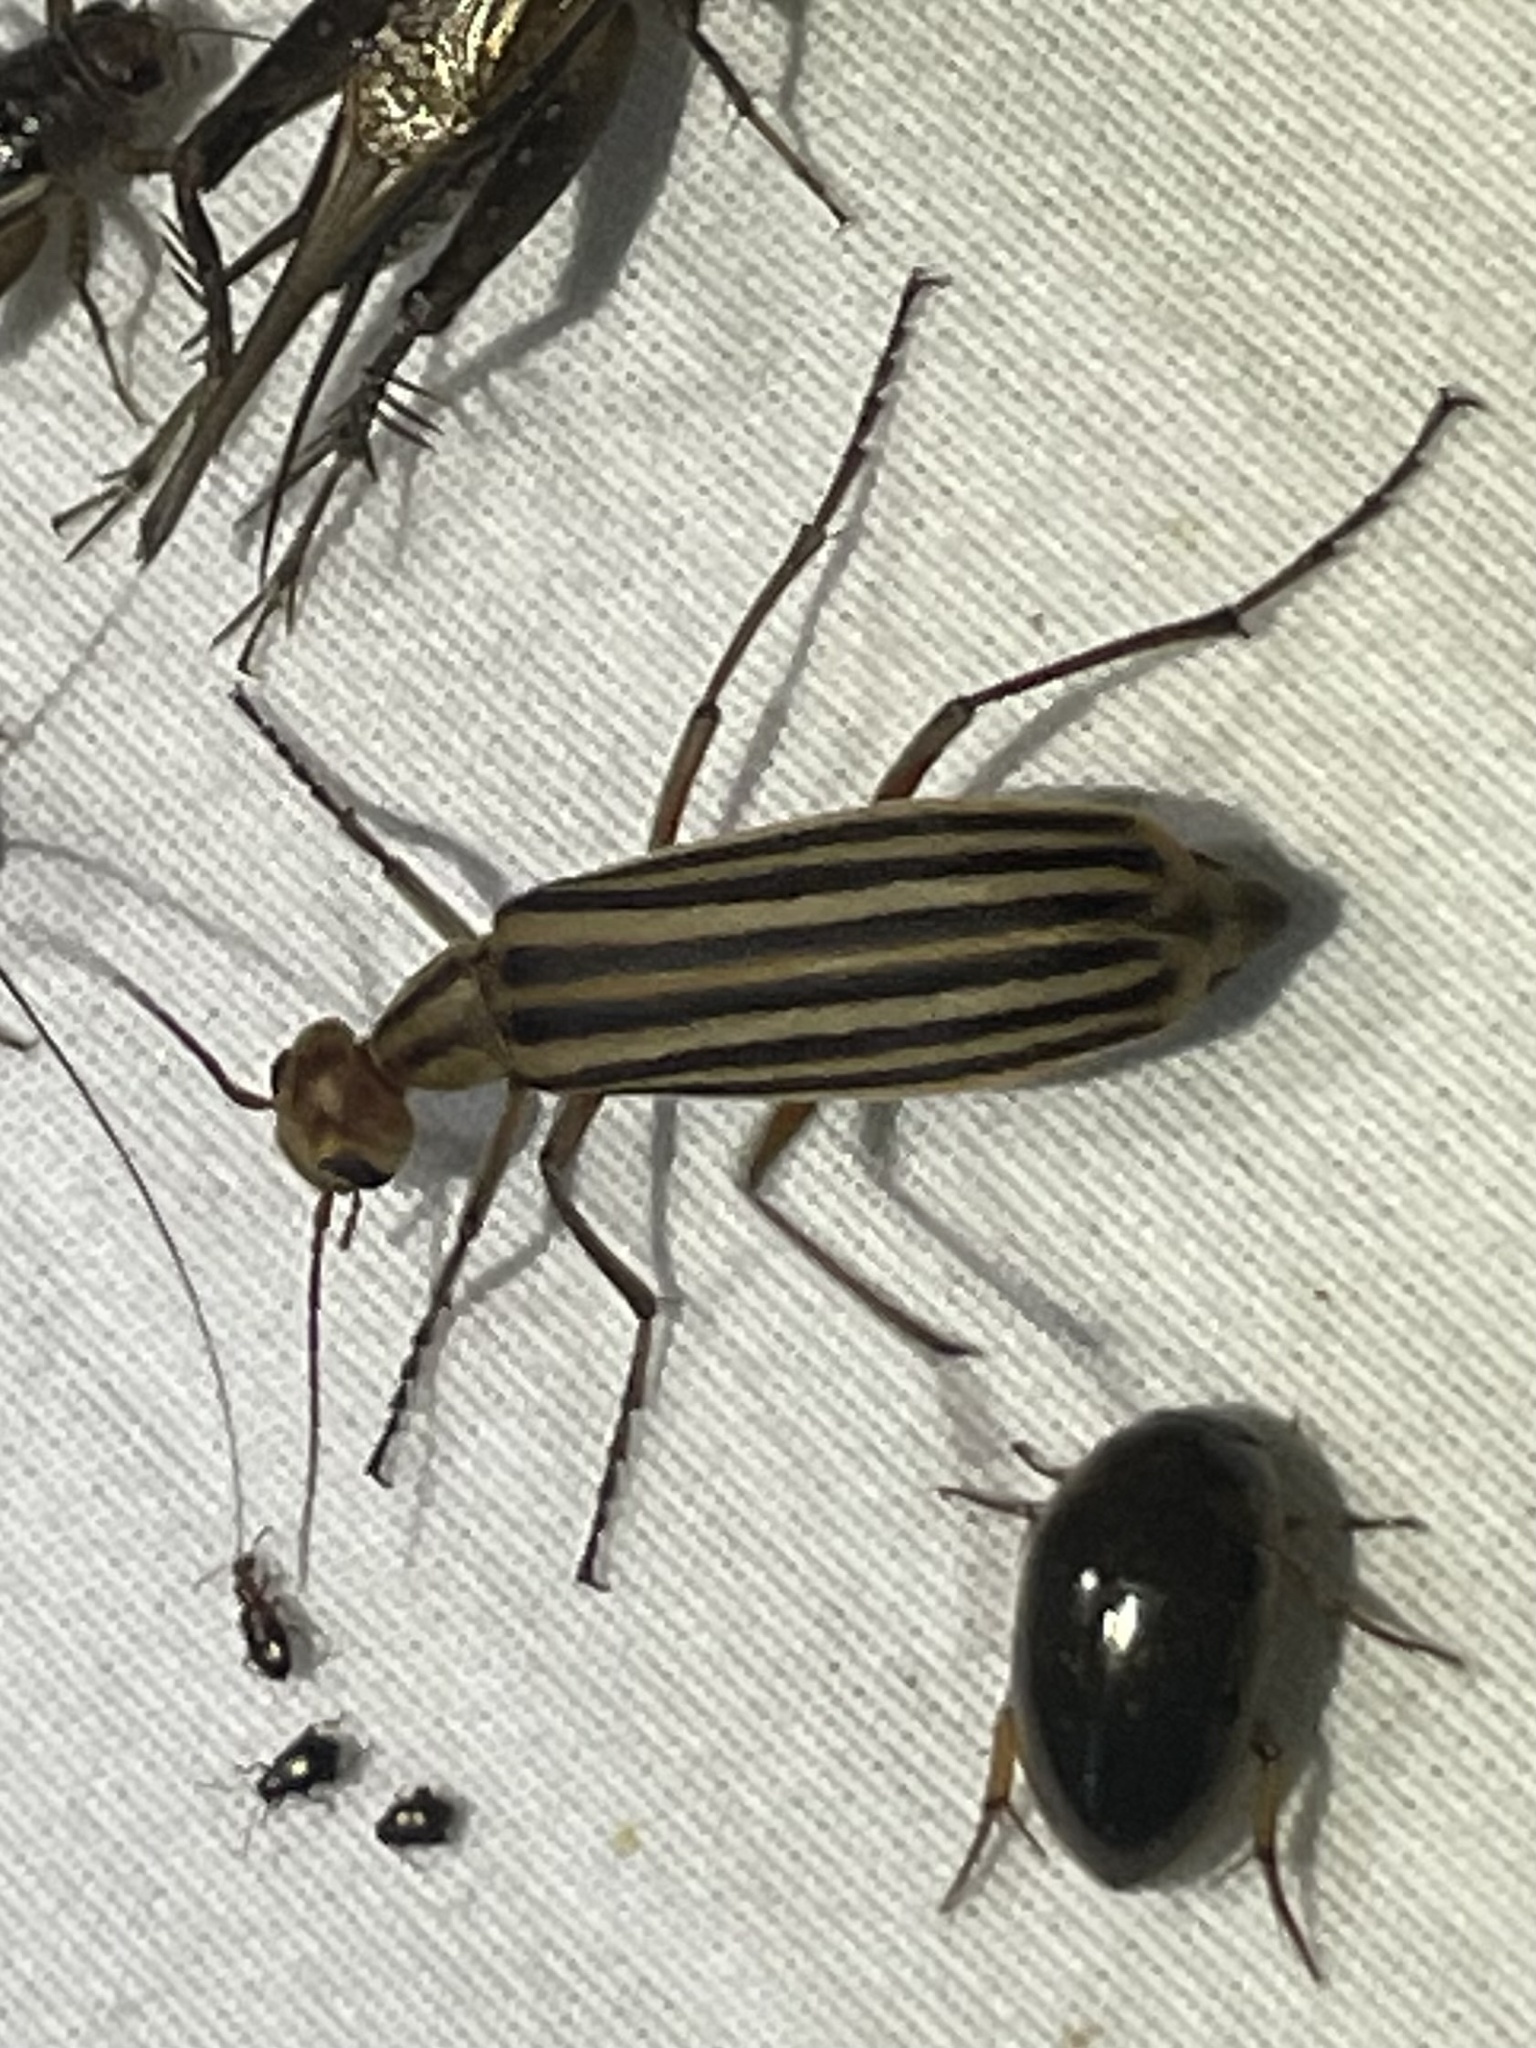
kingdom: Animalia
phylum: Arthropoda
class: Insecta
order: Coleoptera
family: Meloidae
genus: Epicauta
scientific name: Epicauta vittata
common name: Old-fashioned potato beetle
